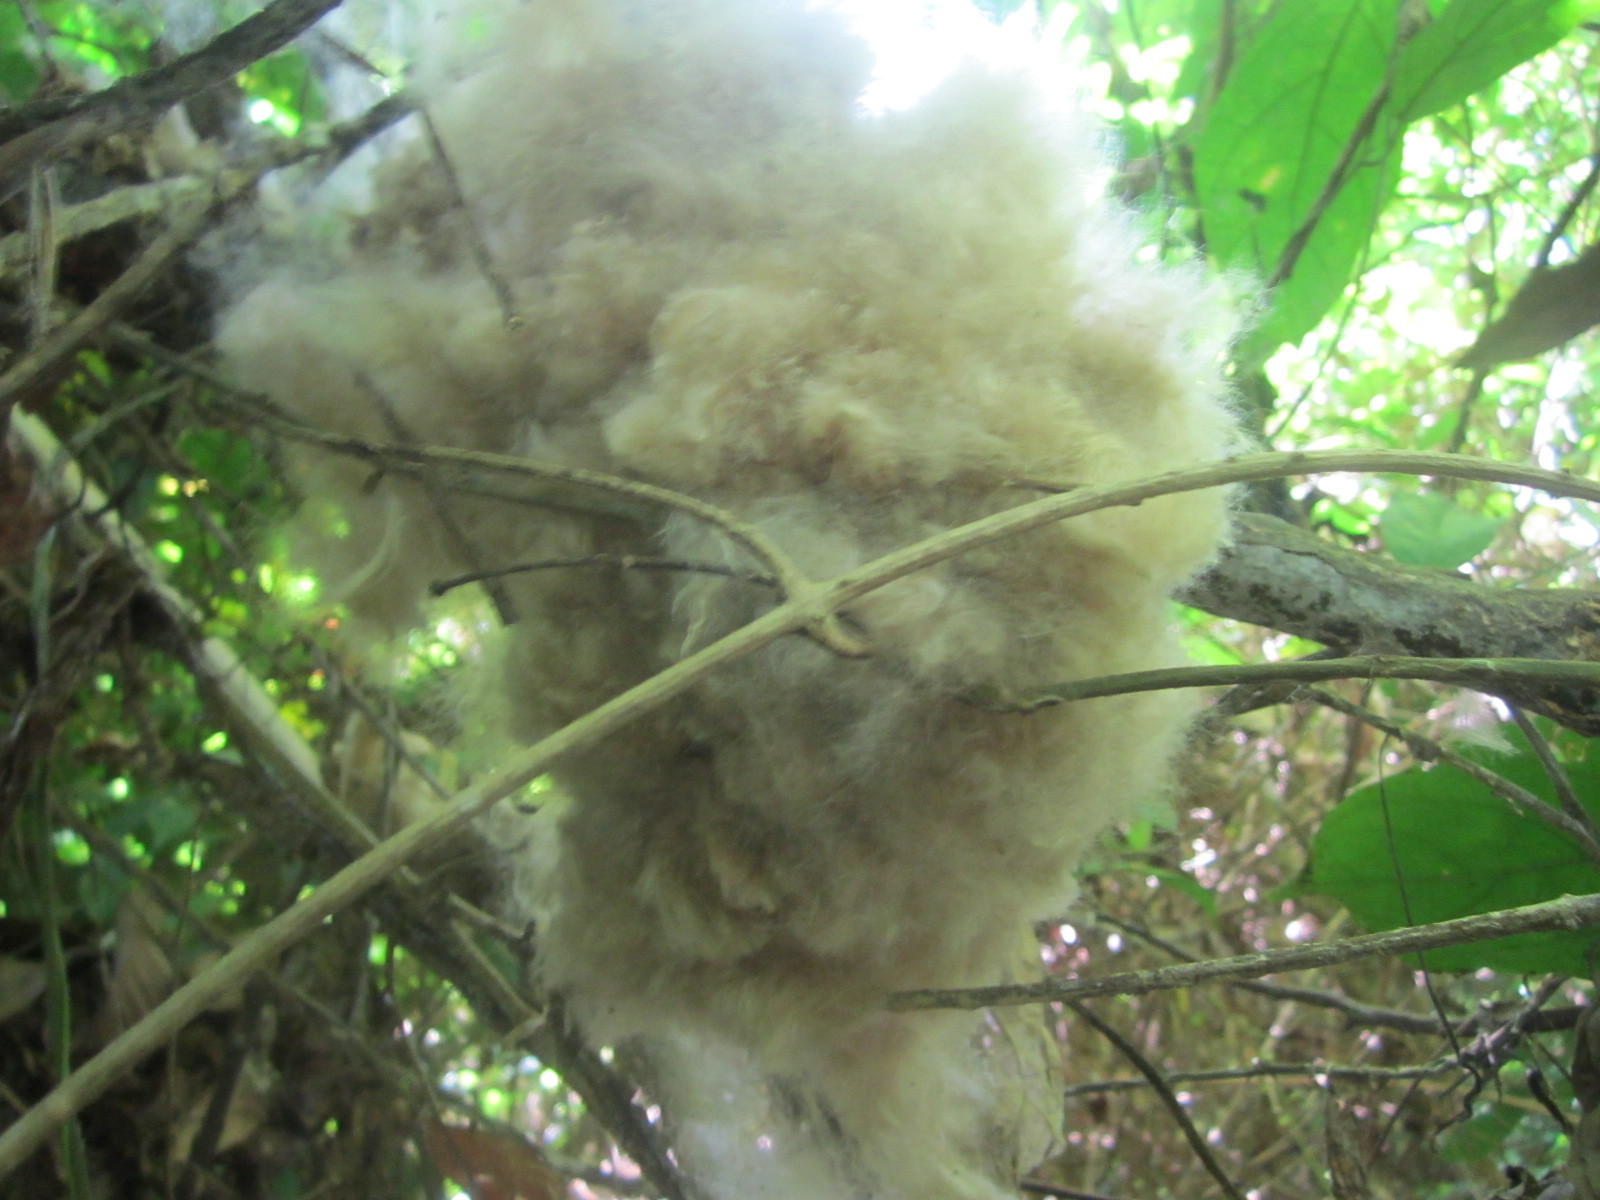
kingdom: Plantae
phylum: Tracheophyta
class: Magnoliopsida
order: Malvales
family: Malvaceae
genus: Ceiba
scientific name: Ceiba pentandra
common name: Kapok
